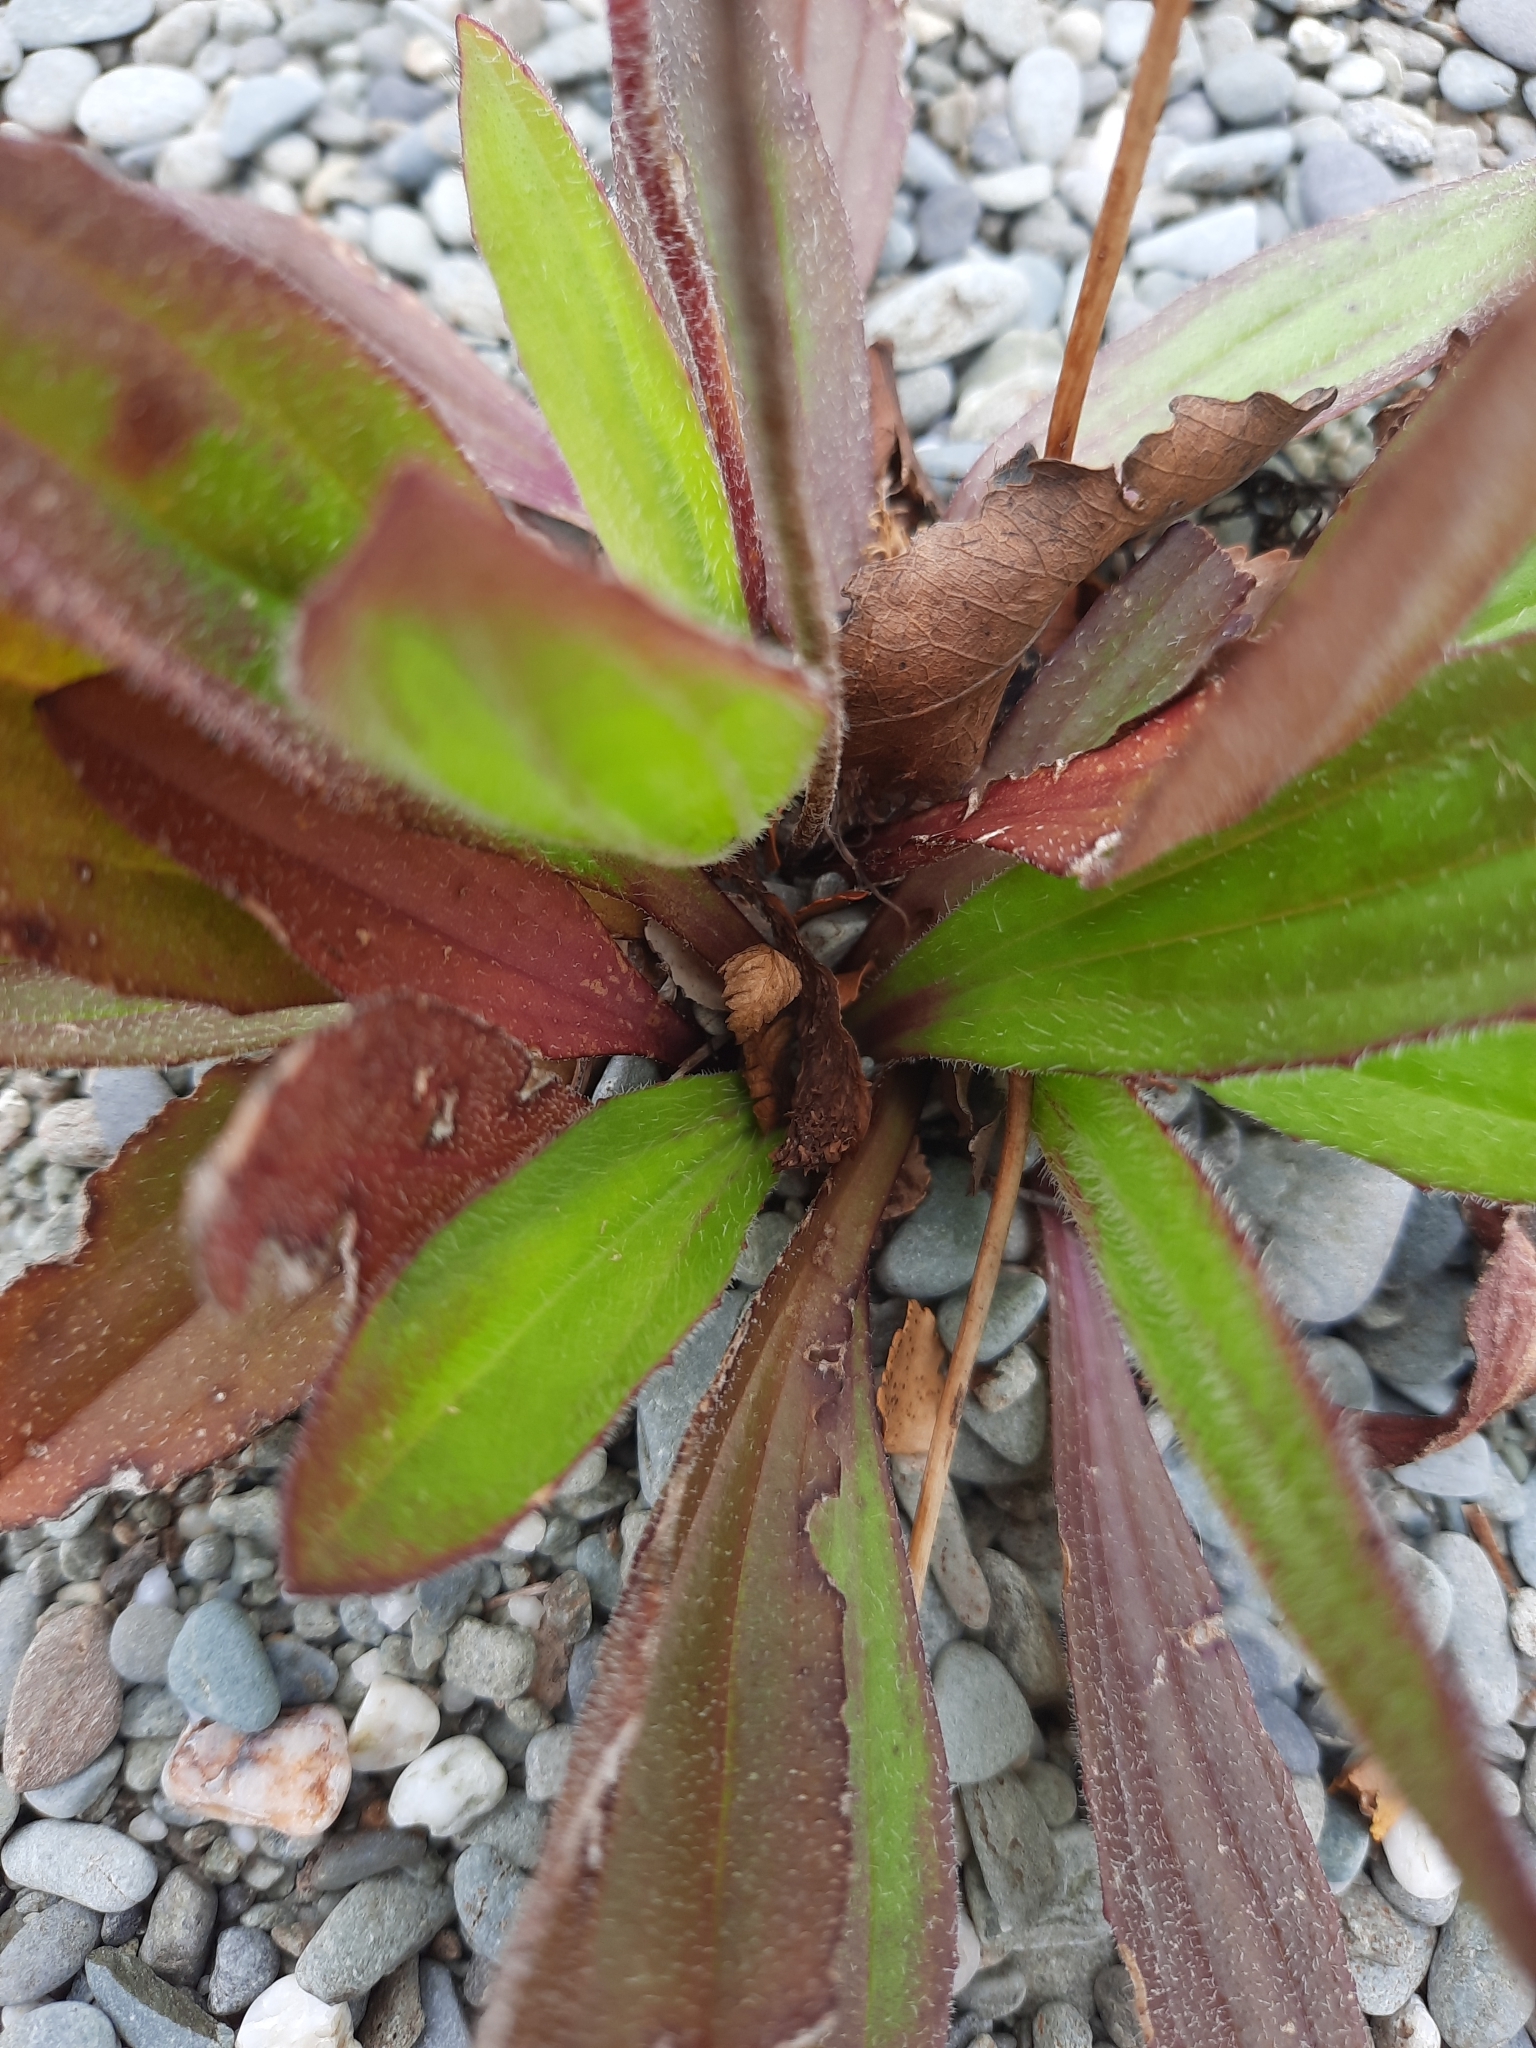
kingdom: Plantae
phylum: Tracheophyta
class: Magnoliopsida
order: Lamiales
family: Plantaginaceae
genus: Plantago
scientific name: Plantago australis
